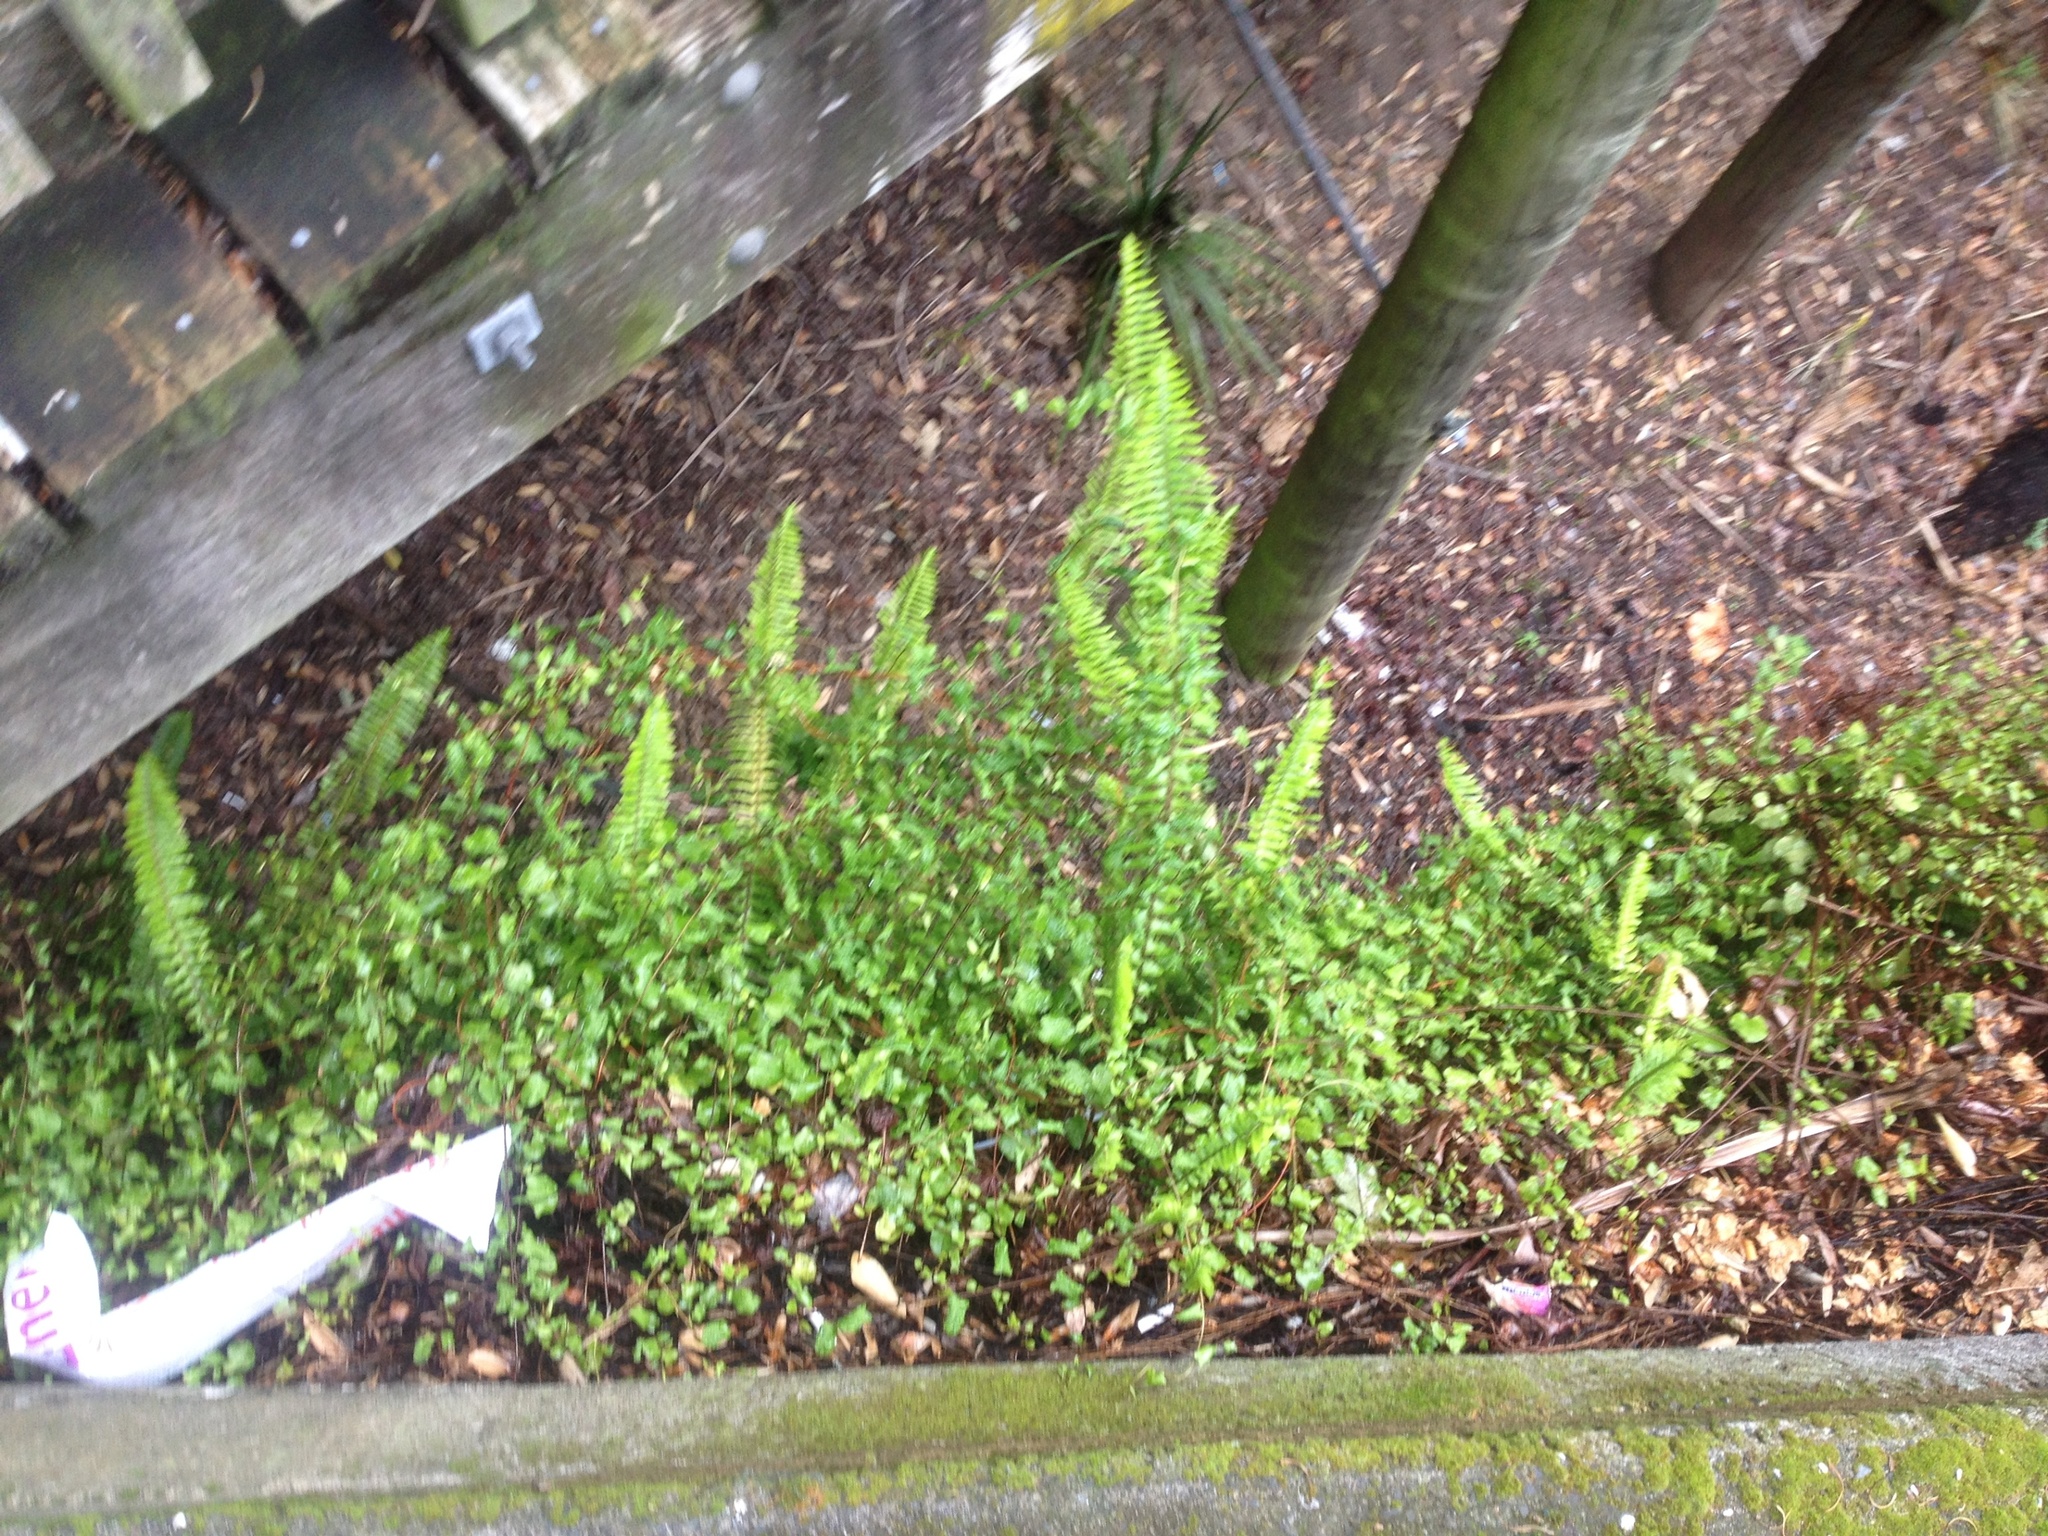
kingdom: Plantae
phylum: Tracheophyta
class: Magnoliopsida
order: Caryophyllales
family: Polygonaceae
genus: Muehlenbeckia
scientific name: Muehlenbeckia australis
